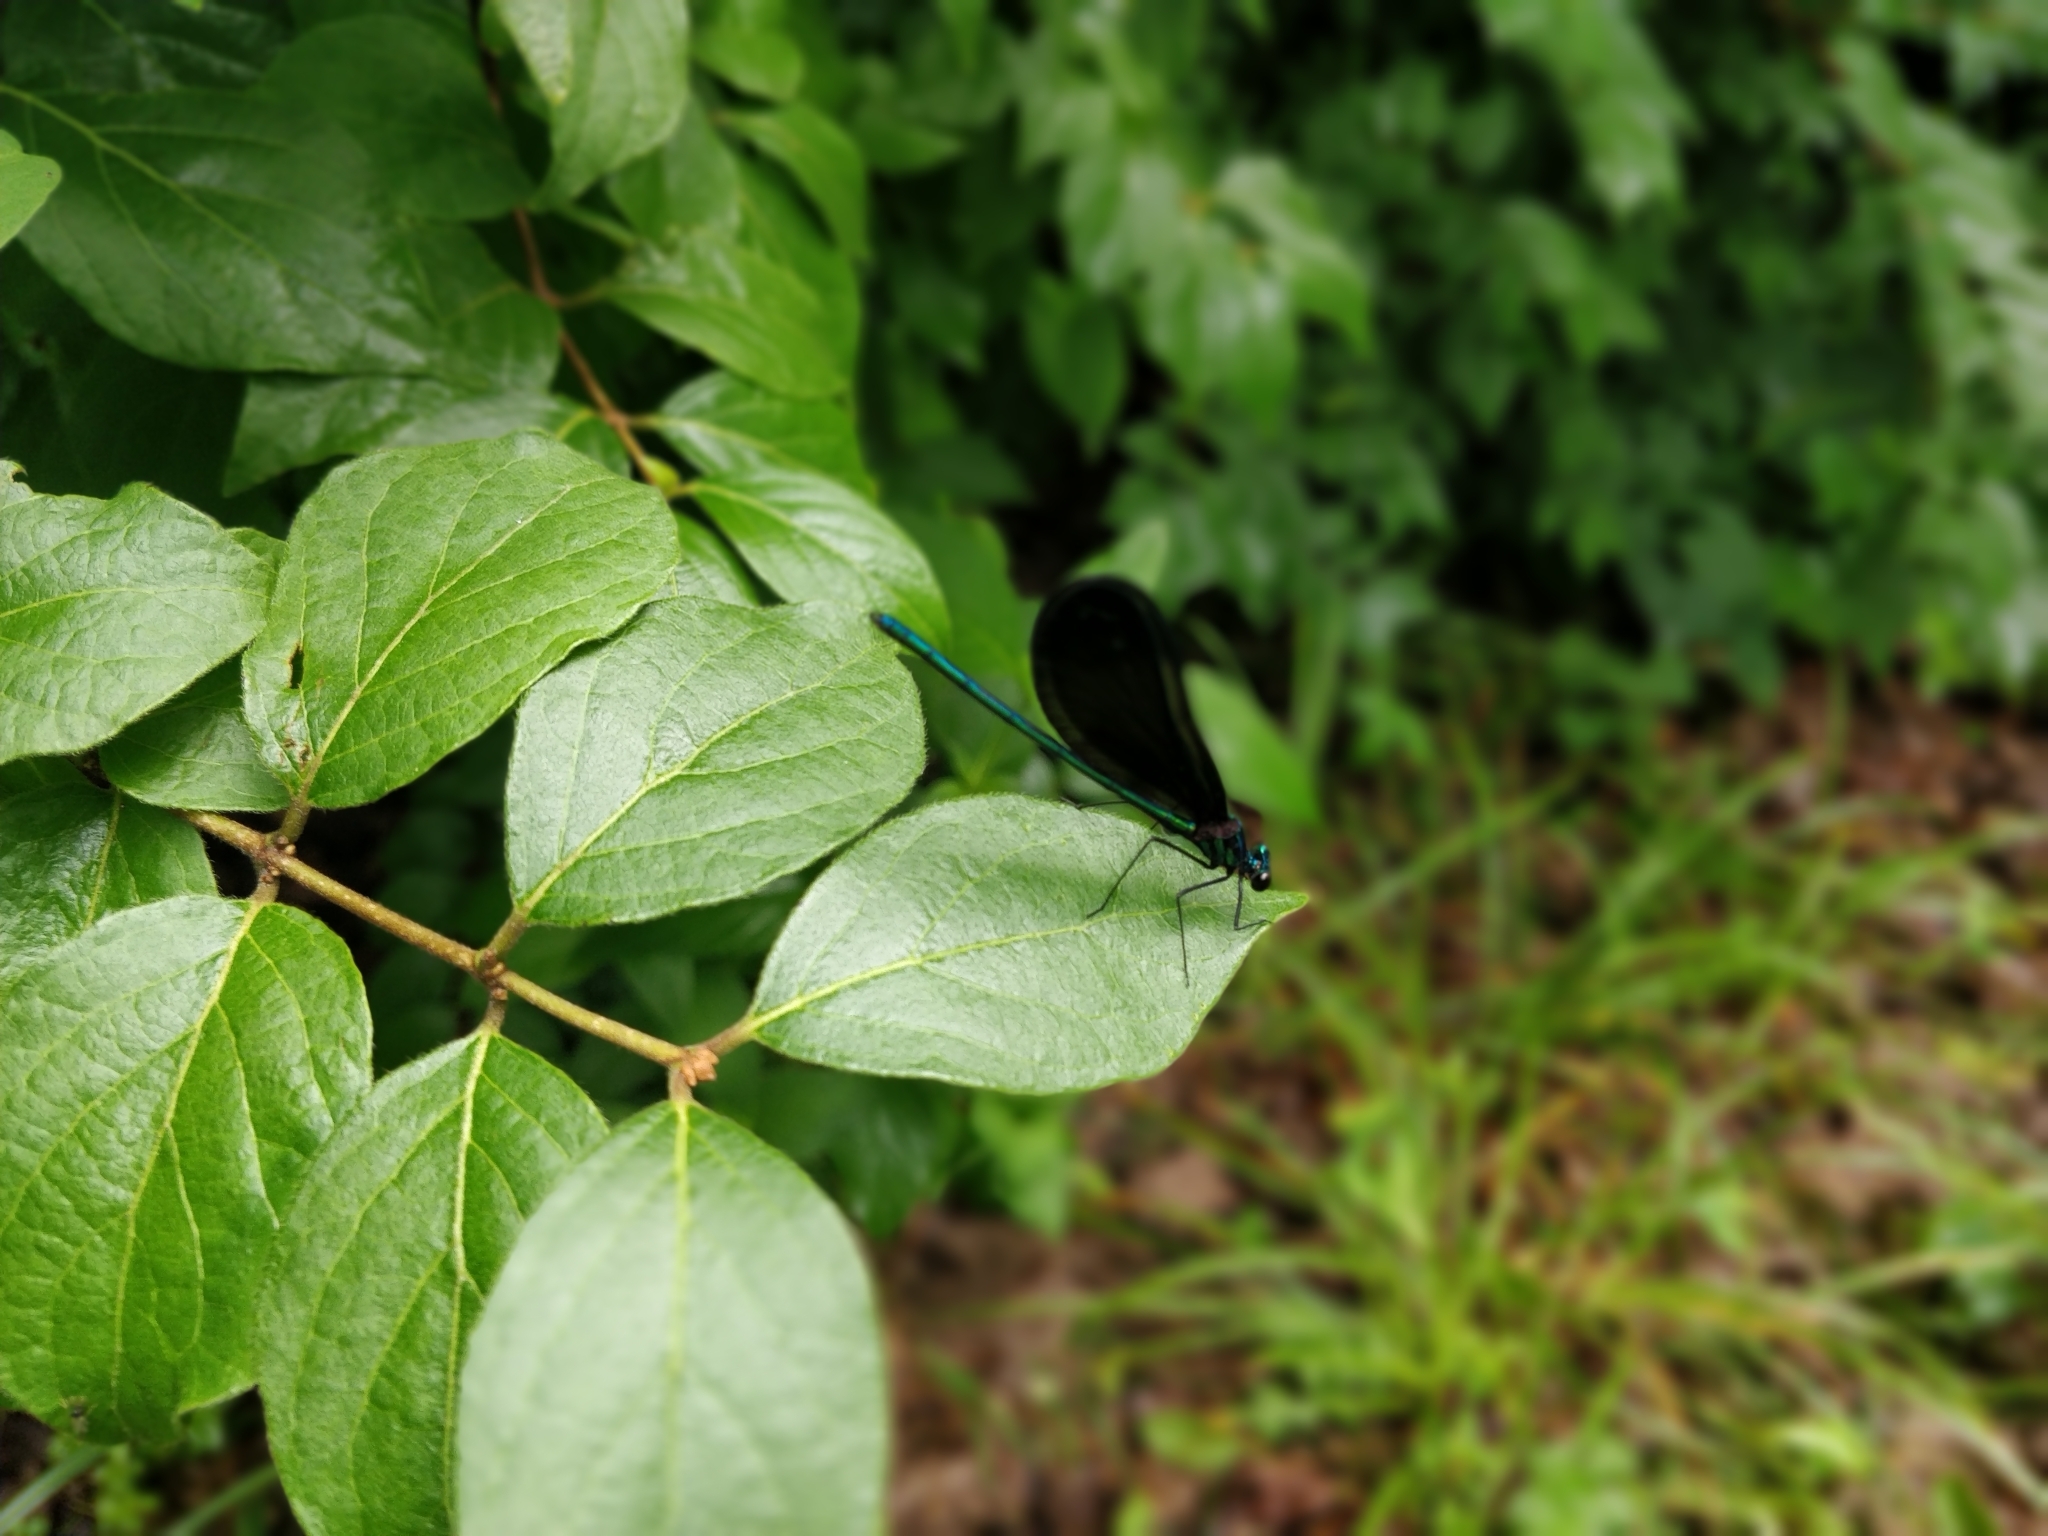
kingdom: Animalia
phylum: Arthropoda
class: Insecta
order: Odonata
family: Calopterygidae
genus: Calopteryx
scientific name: Calopteryx maculata
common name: Ebony jewelwing
